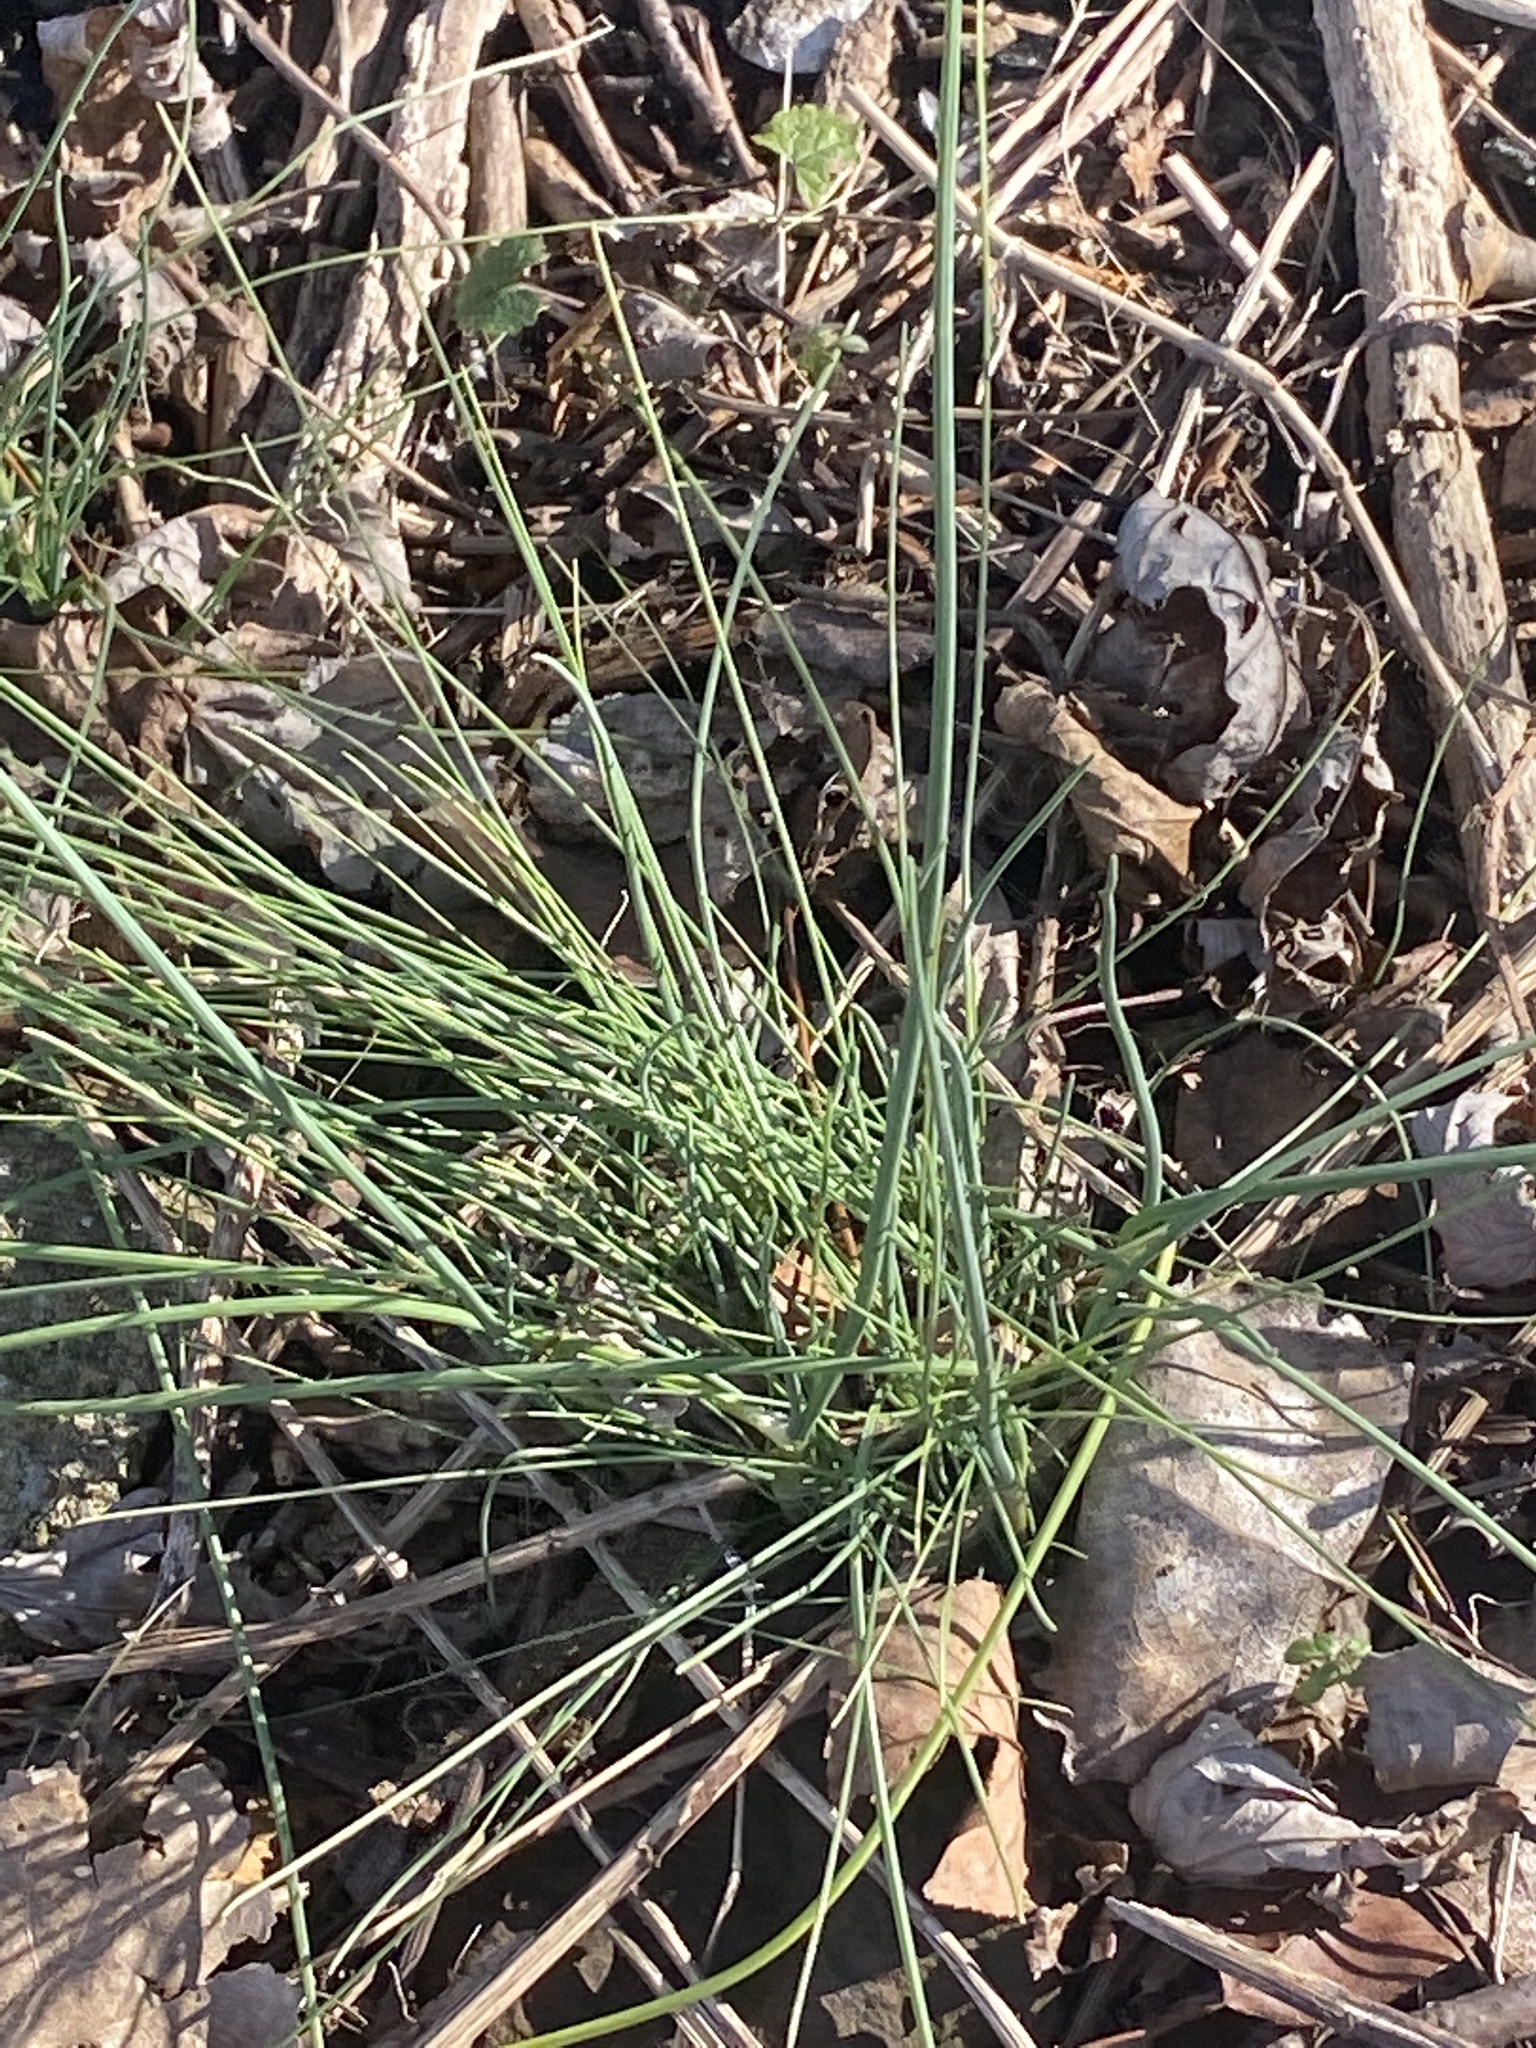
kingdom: Plantae
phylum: Tracheophyta
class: Liliopsida
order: Asparagales
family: Amaryllidaceae
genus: Allium
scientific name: Allium vineale
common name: Crow garlic
